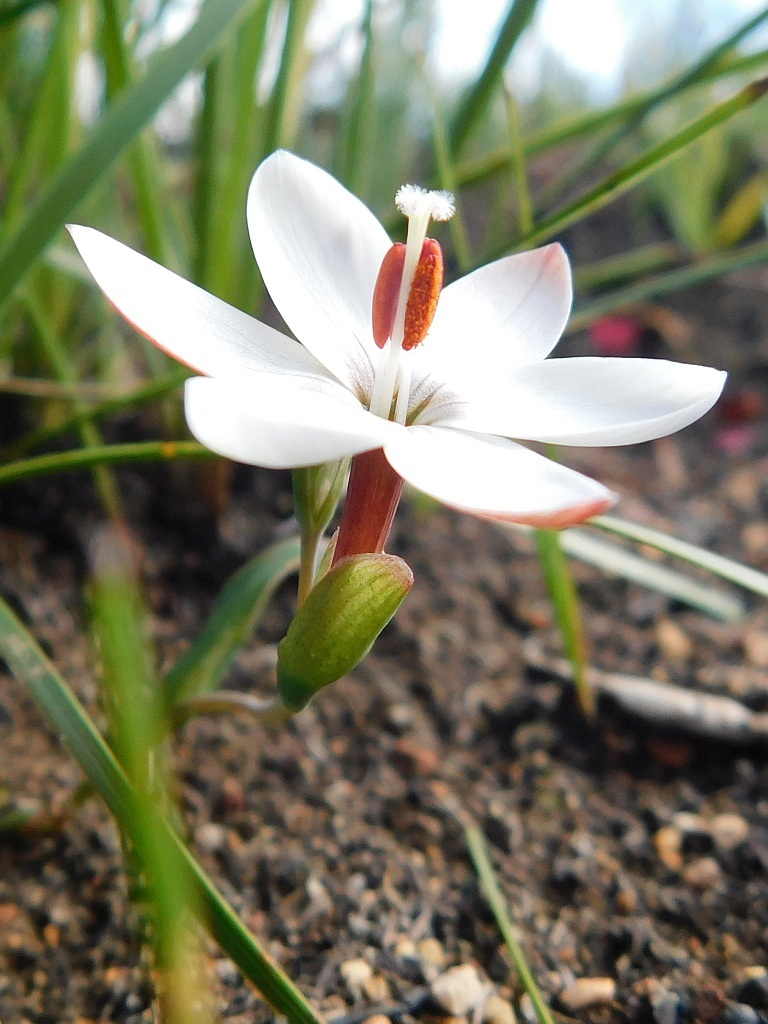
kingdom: Plantae
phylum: Tracheophyta
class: Liliopsida
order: Asparagales
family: Iridaceae
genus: Geissorhiza
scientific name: Geissorhiza ovata
